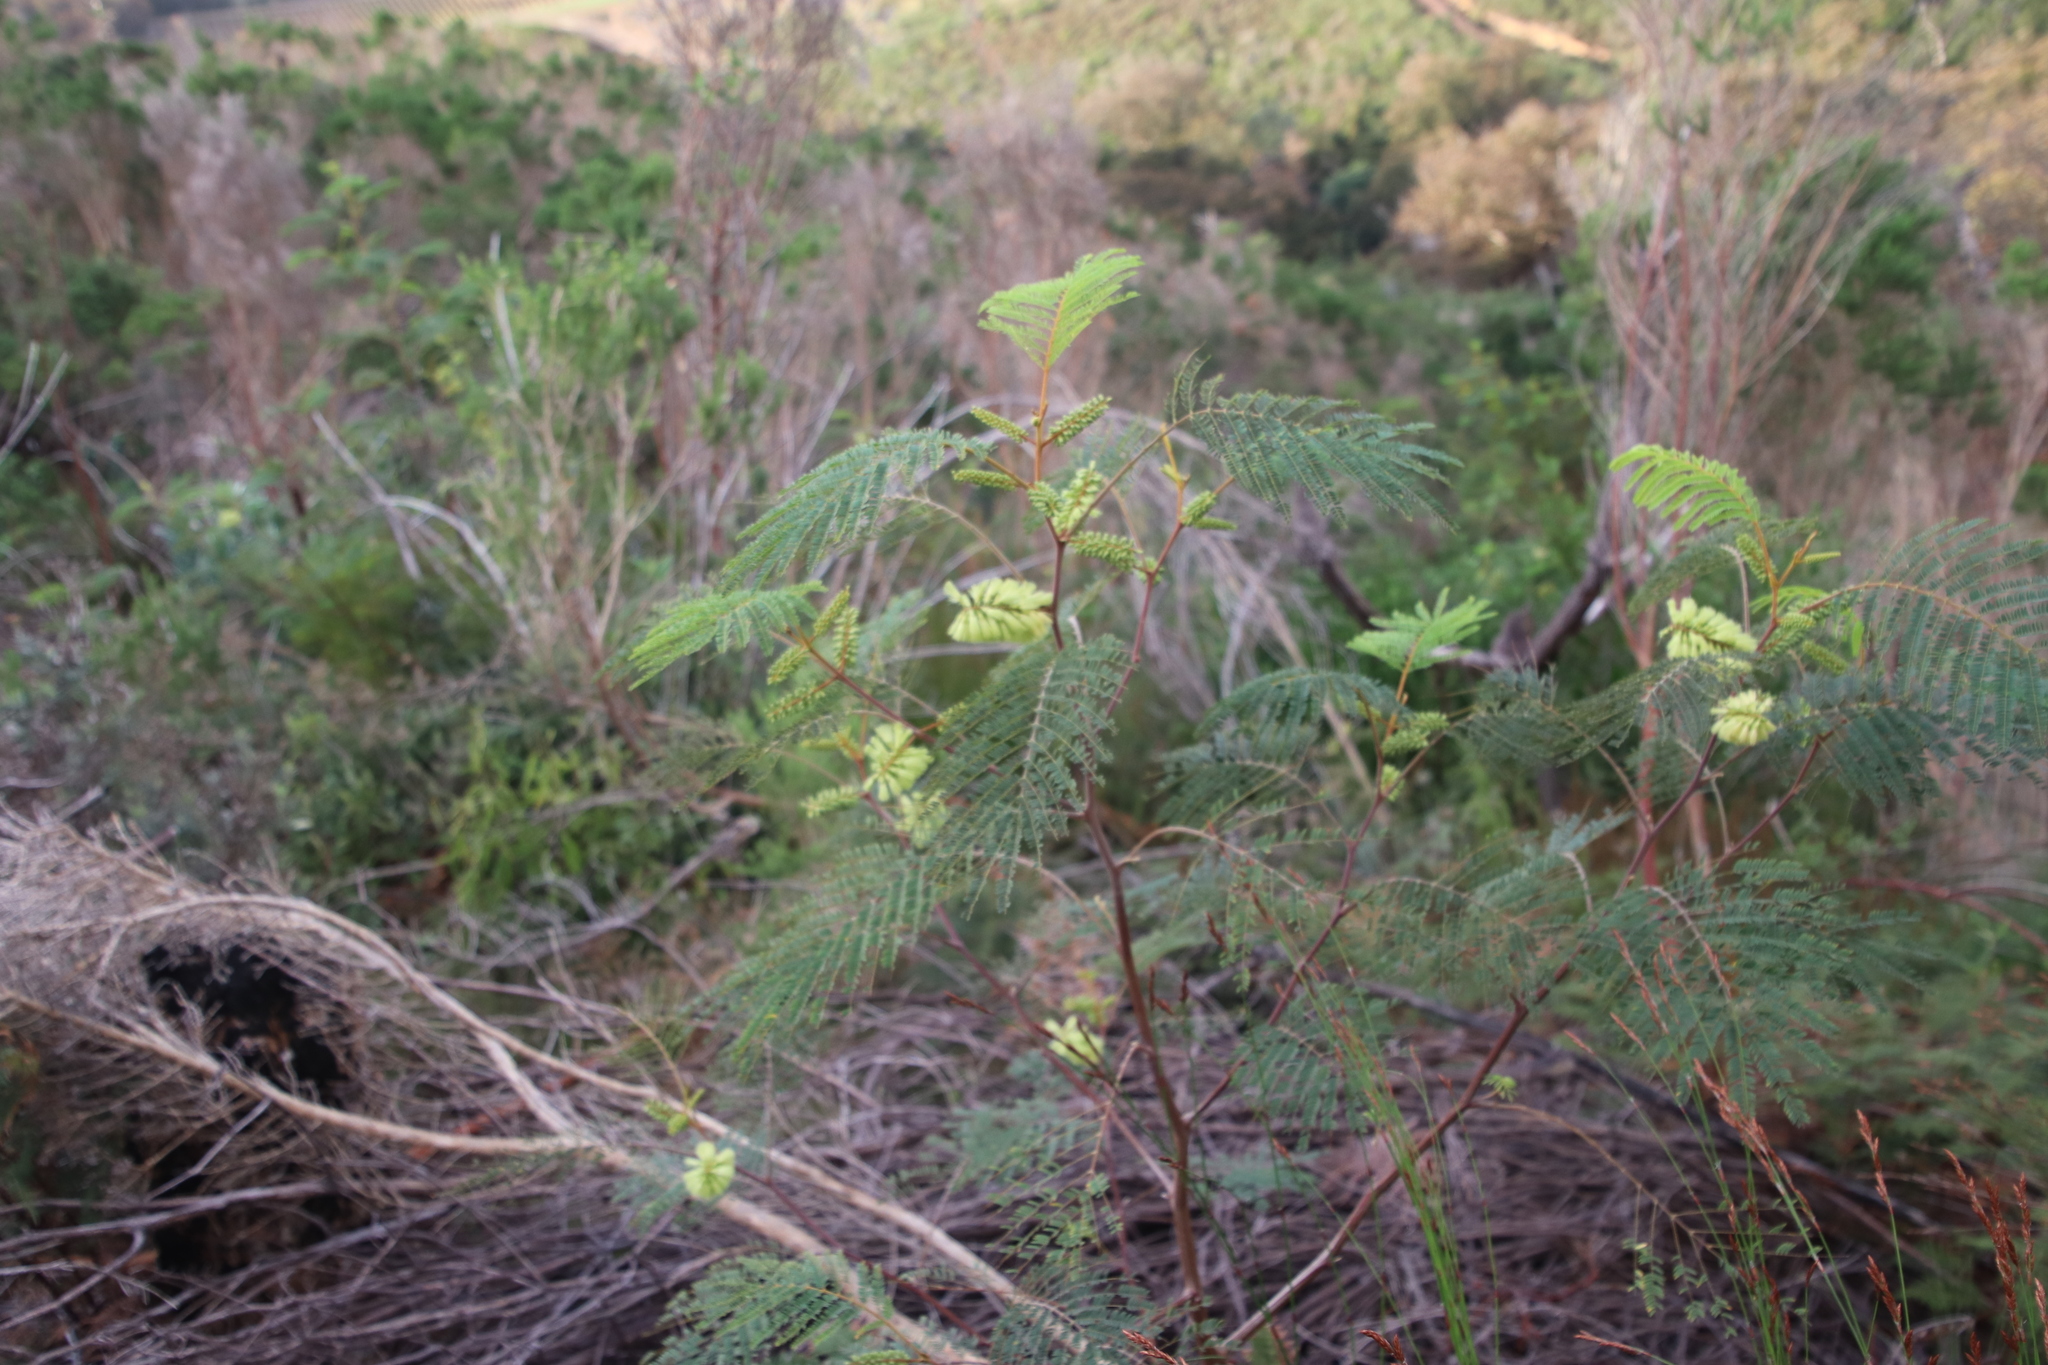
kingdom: Plantae
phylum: Tracheophyta
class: Magnoliopsida
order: Fabales
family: Fabaceae
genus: Paraserianthes
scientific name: Paraserianthes lophantha
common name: Plume albizia
